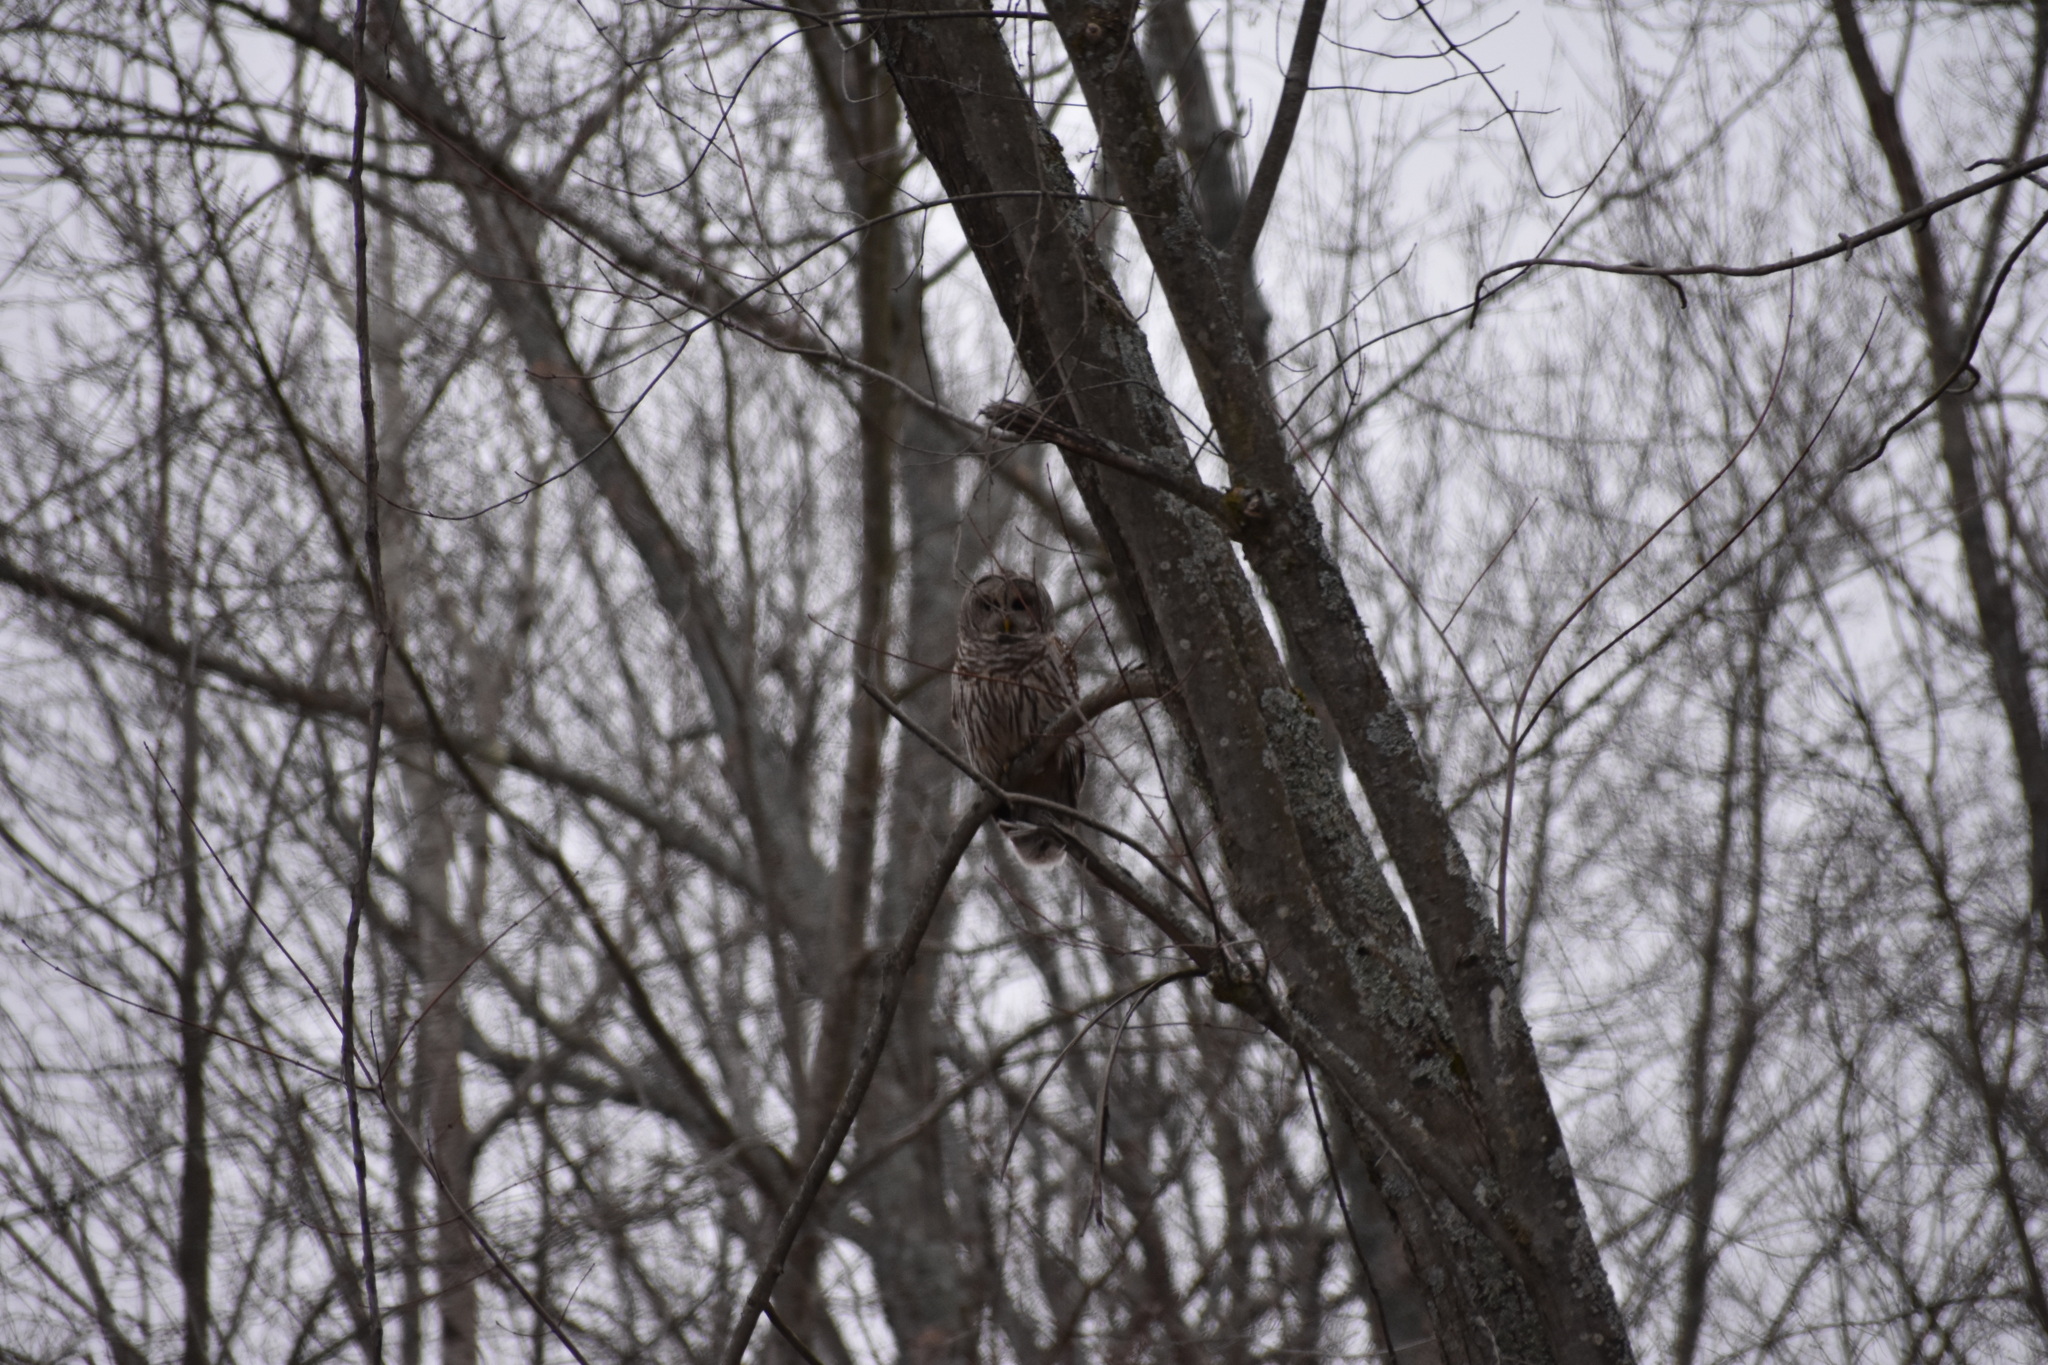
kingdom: Animalia
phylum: Chordata
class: Aves
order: Strigiformes
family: Strigidae
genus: Strix
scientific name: Strix varia
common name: Barred owl
